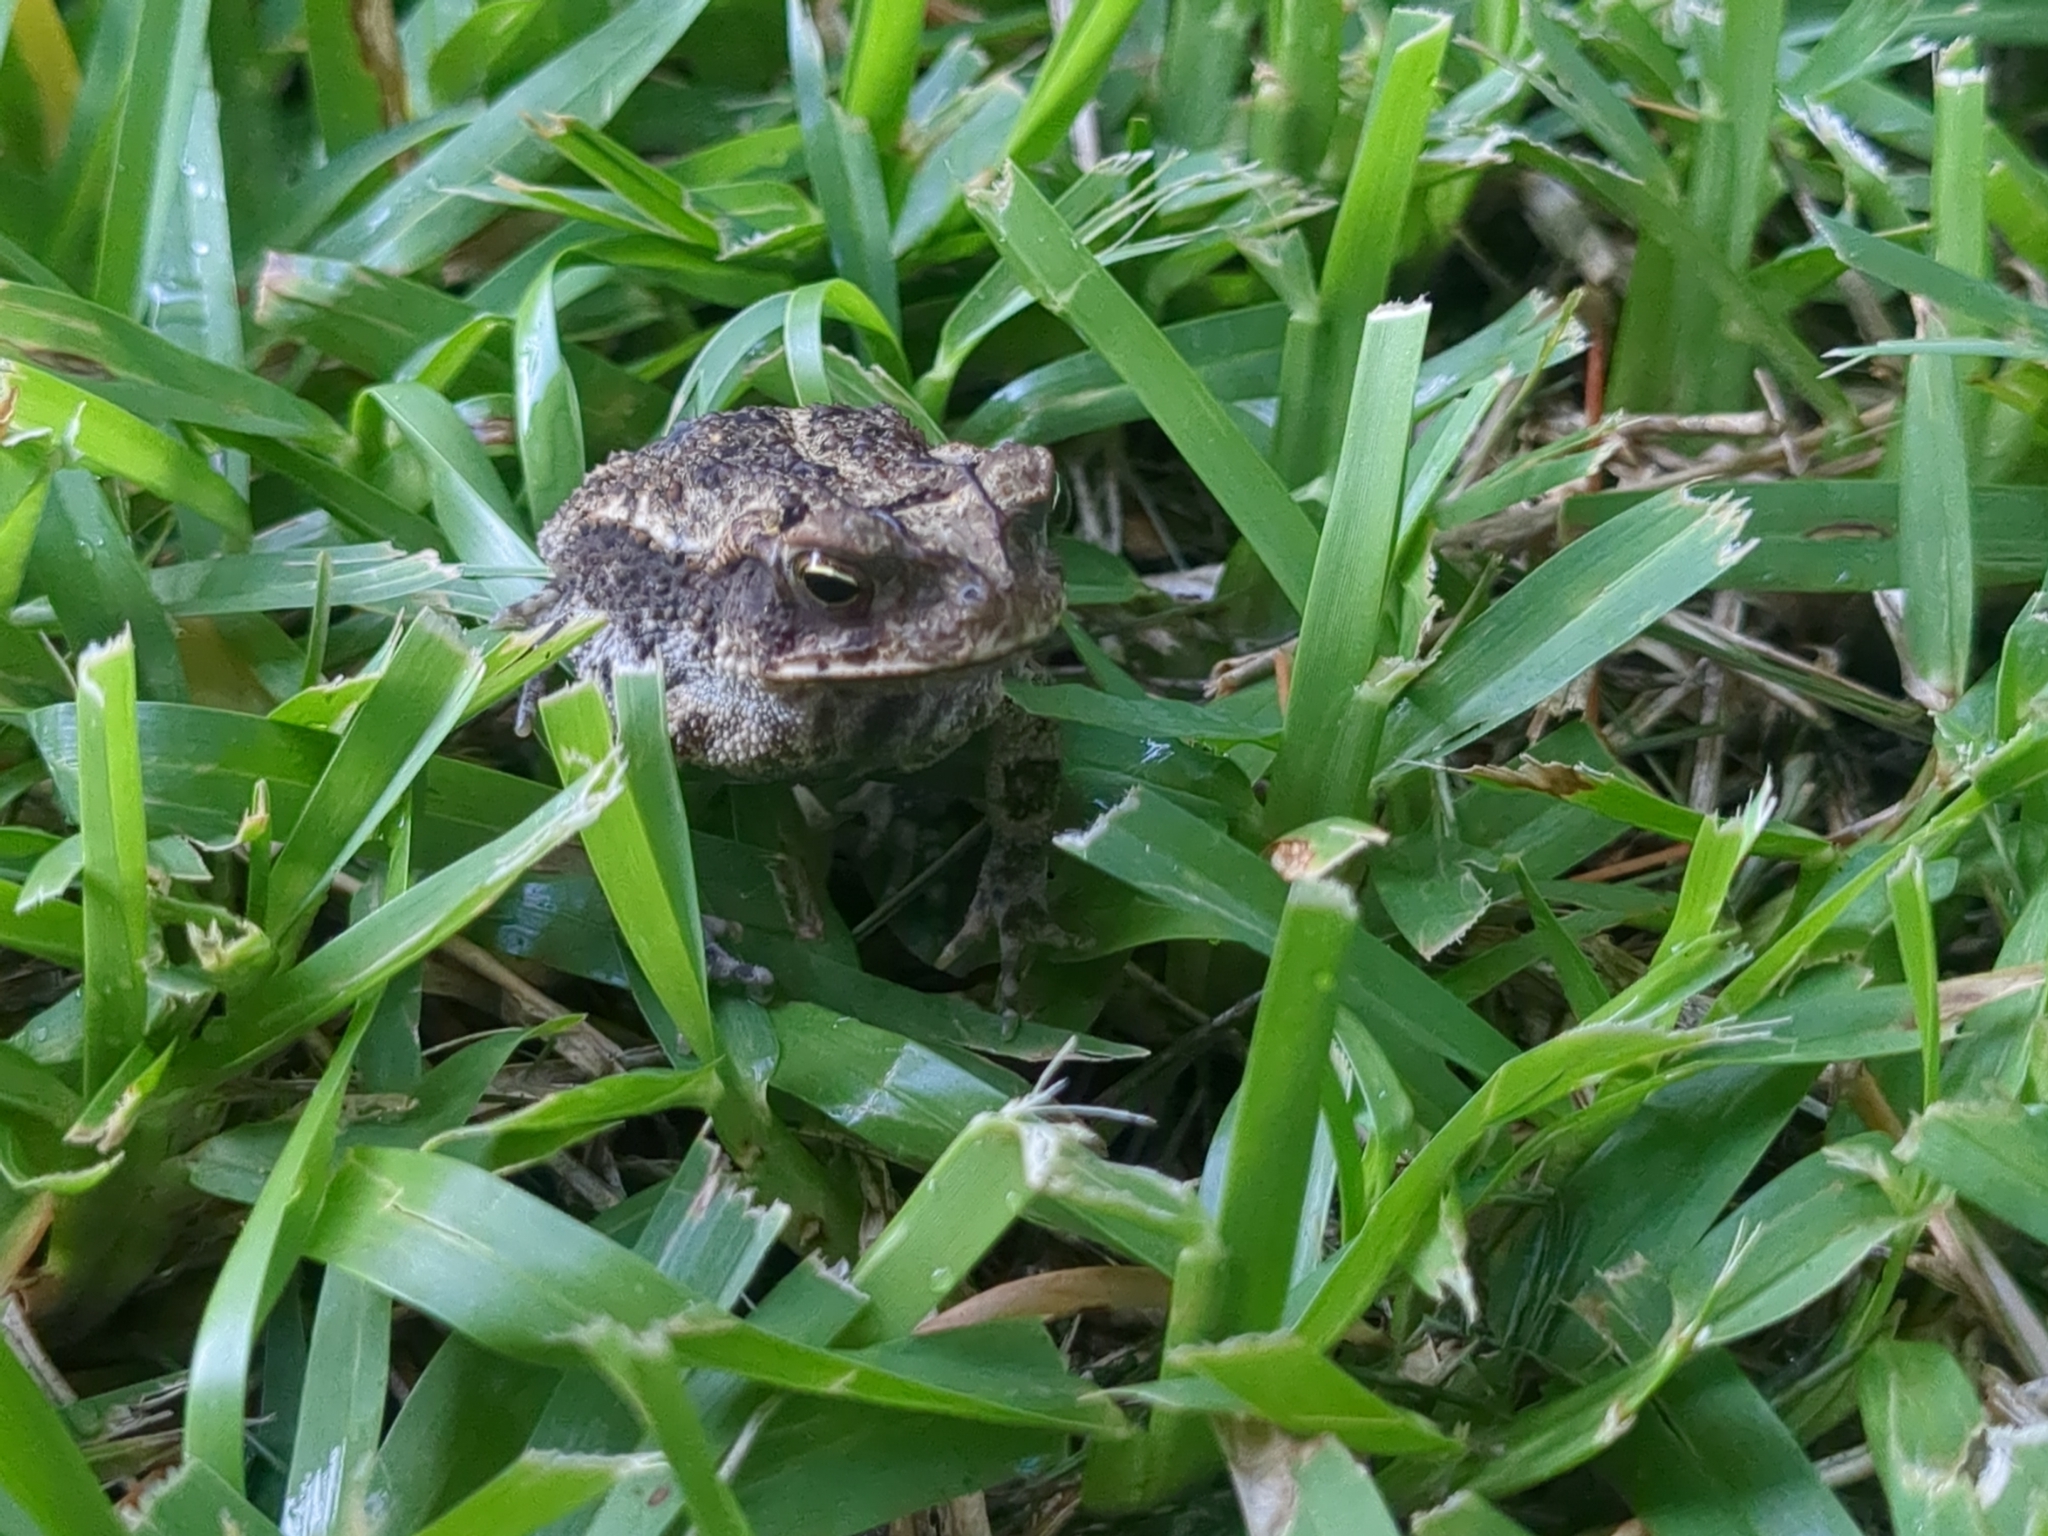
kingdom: Animalia
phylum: Chordata
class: Amphibia
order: Anura
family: Bufonidae
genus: Incilius
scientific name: Incilius nebulifer
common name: Gulf coast toad
